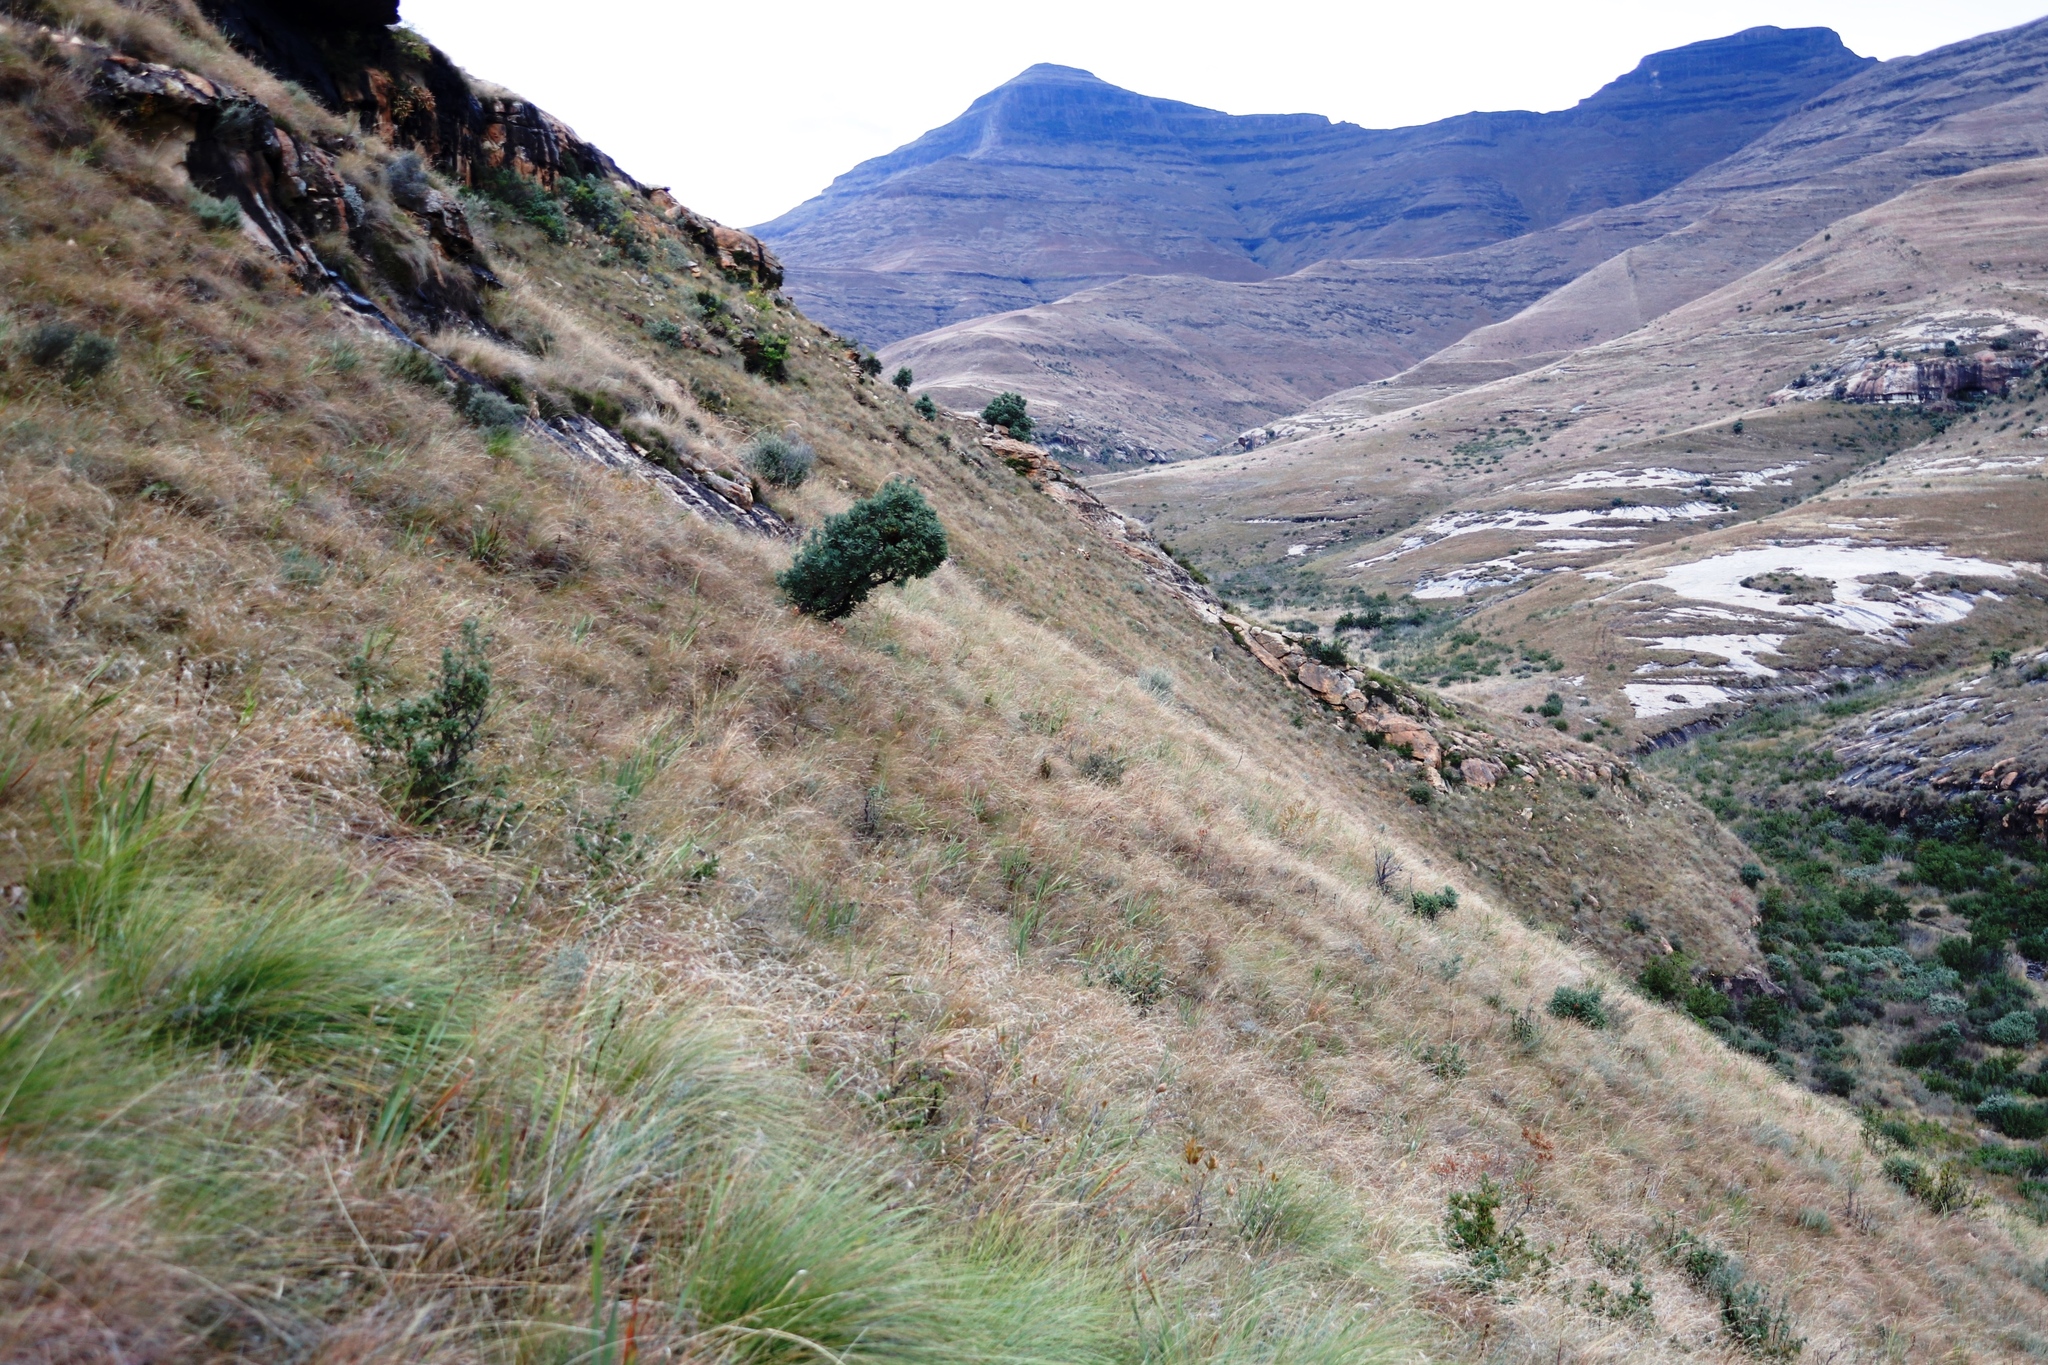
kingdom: Plantae
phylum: Tracheophyta
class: Magnoliopsida
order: Proteales
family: Proteaceae
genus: Protea
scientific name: Protea caffra
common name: Common sugarbush
